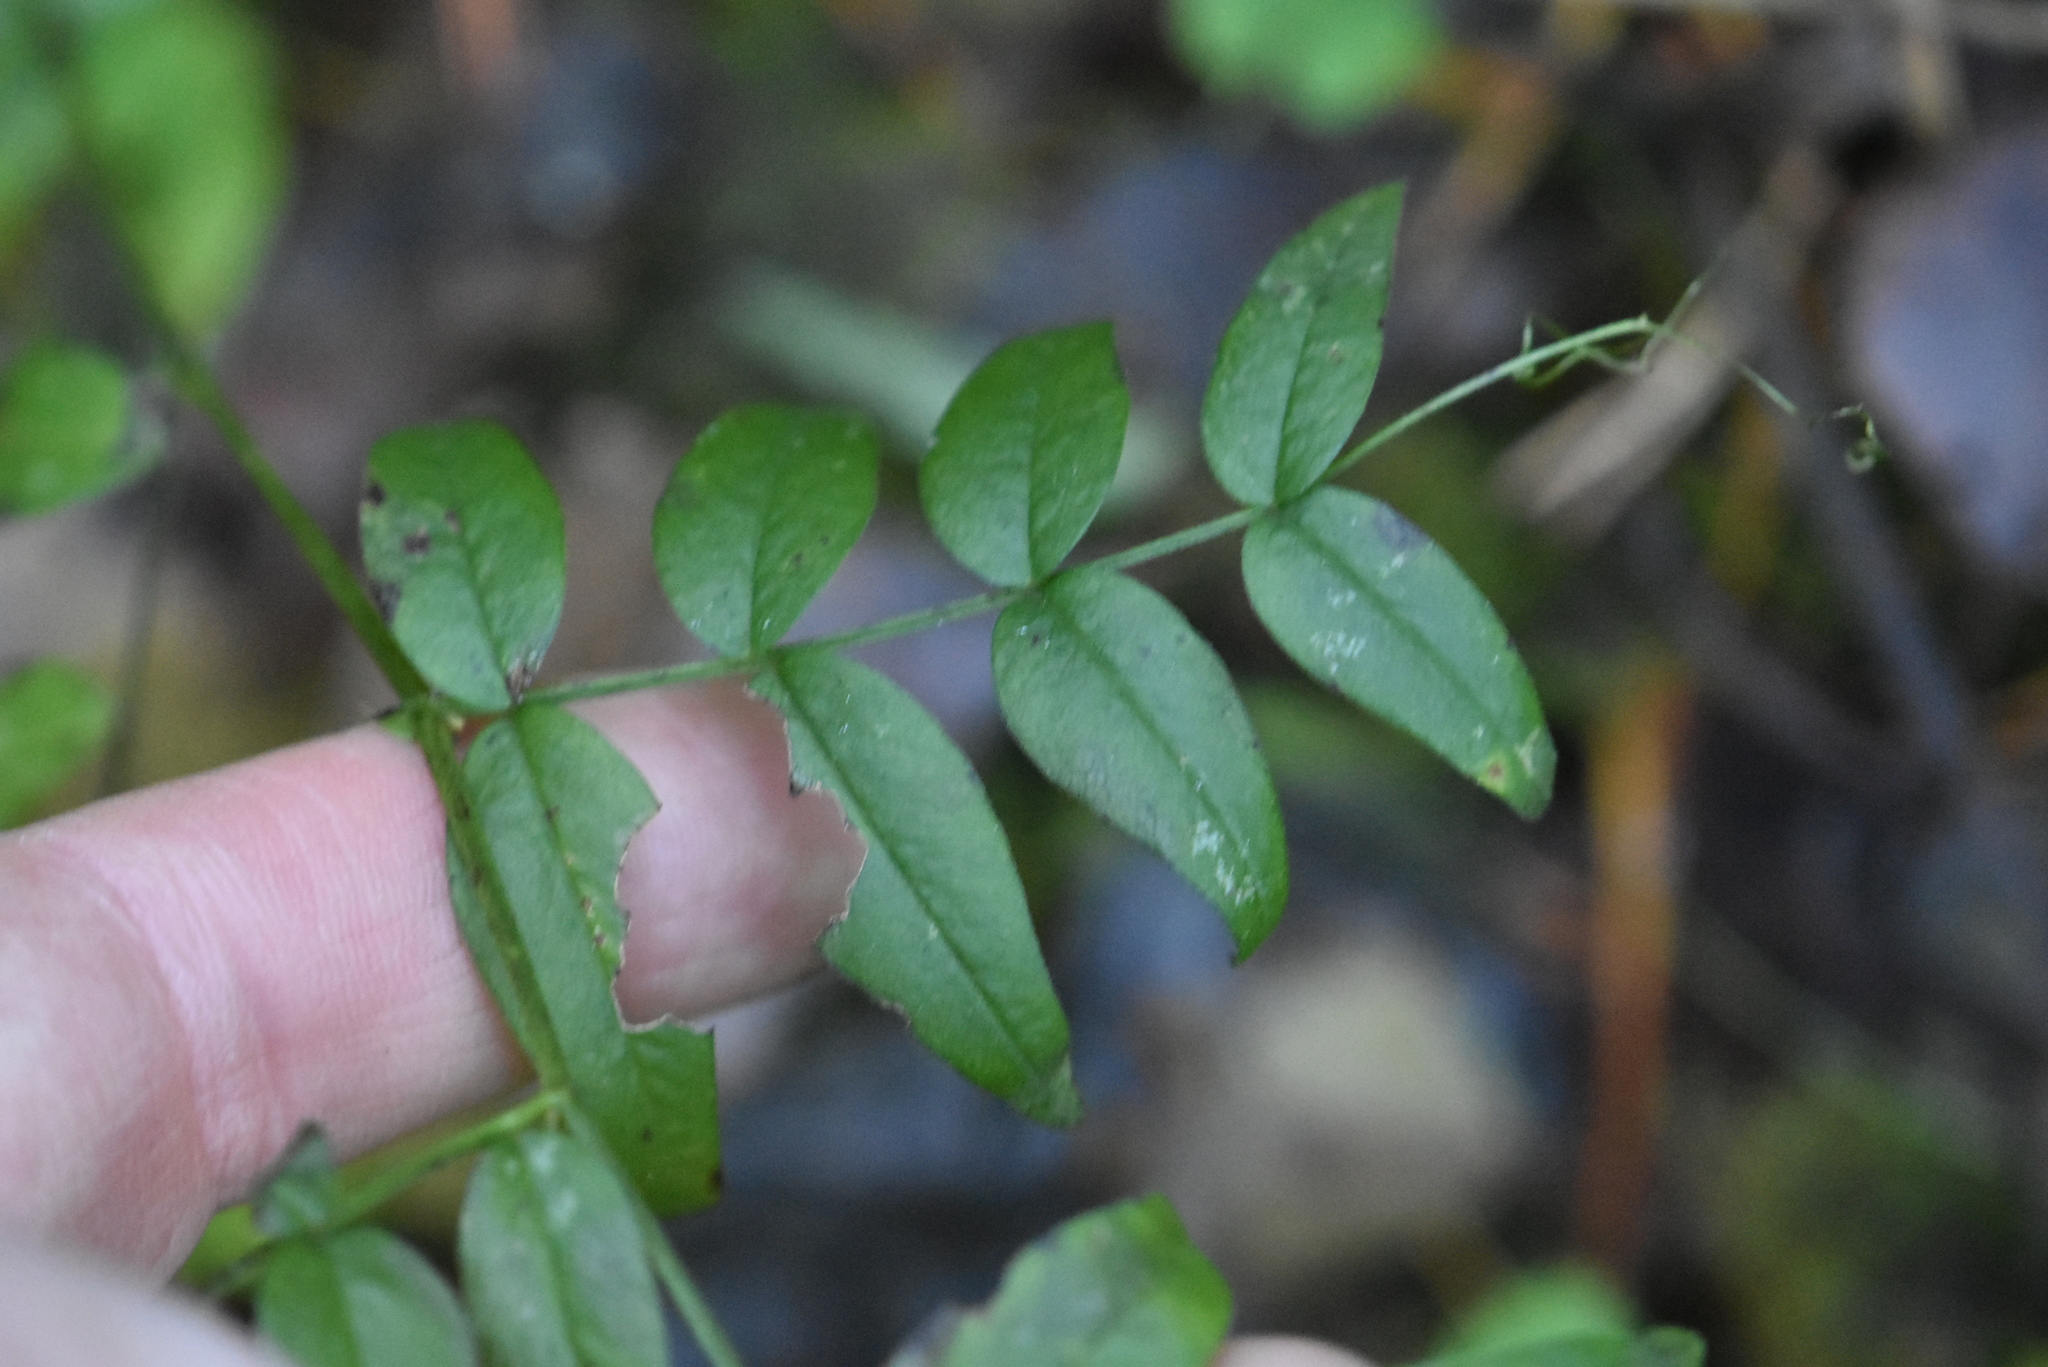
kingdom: Plantae
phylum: Tracheophyta
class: Magnoliopsida
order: Fabales
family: Fabaceae
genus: Vicia
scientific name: Vicia sepium
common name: Bush vetch
